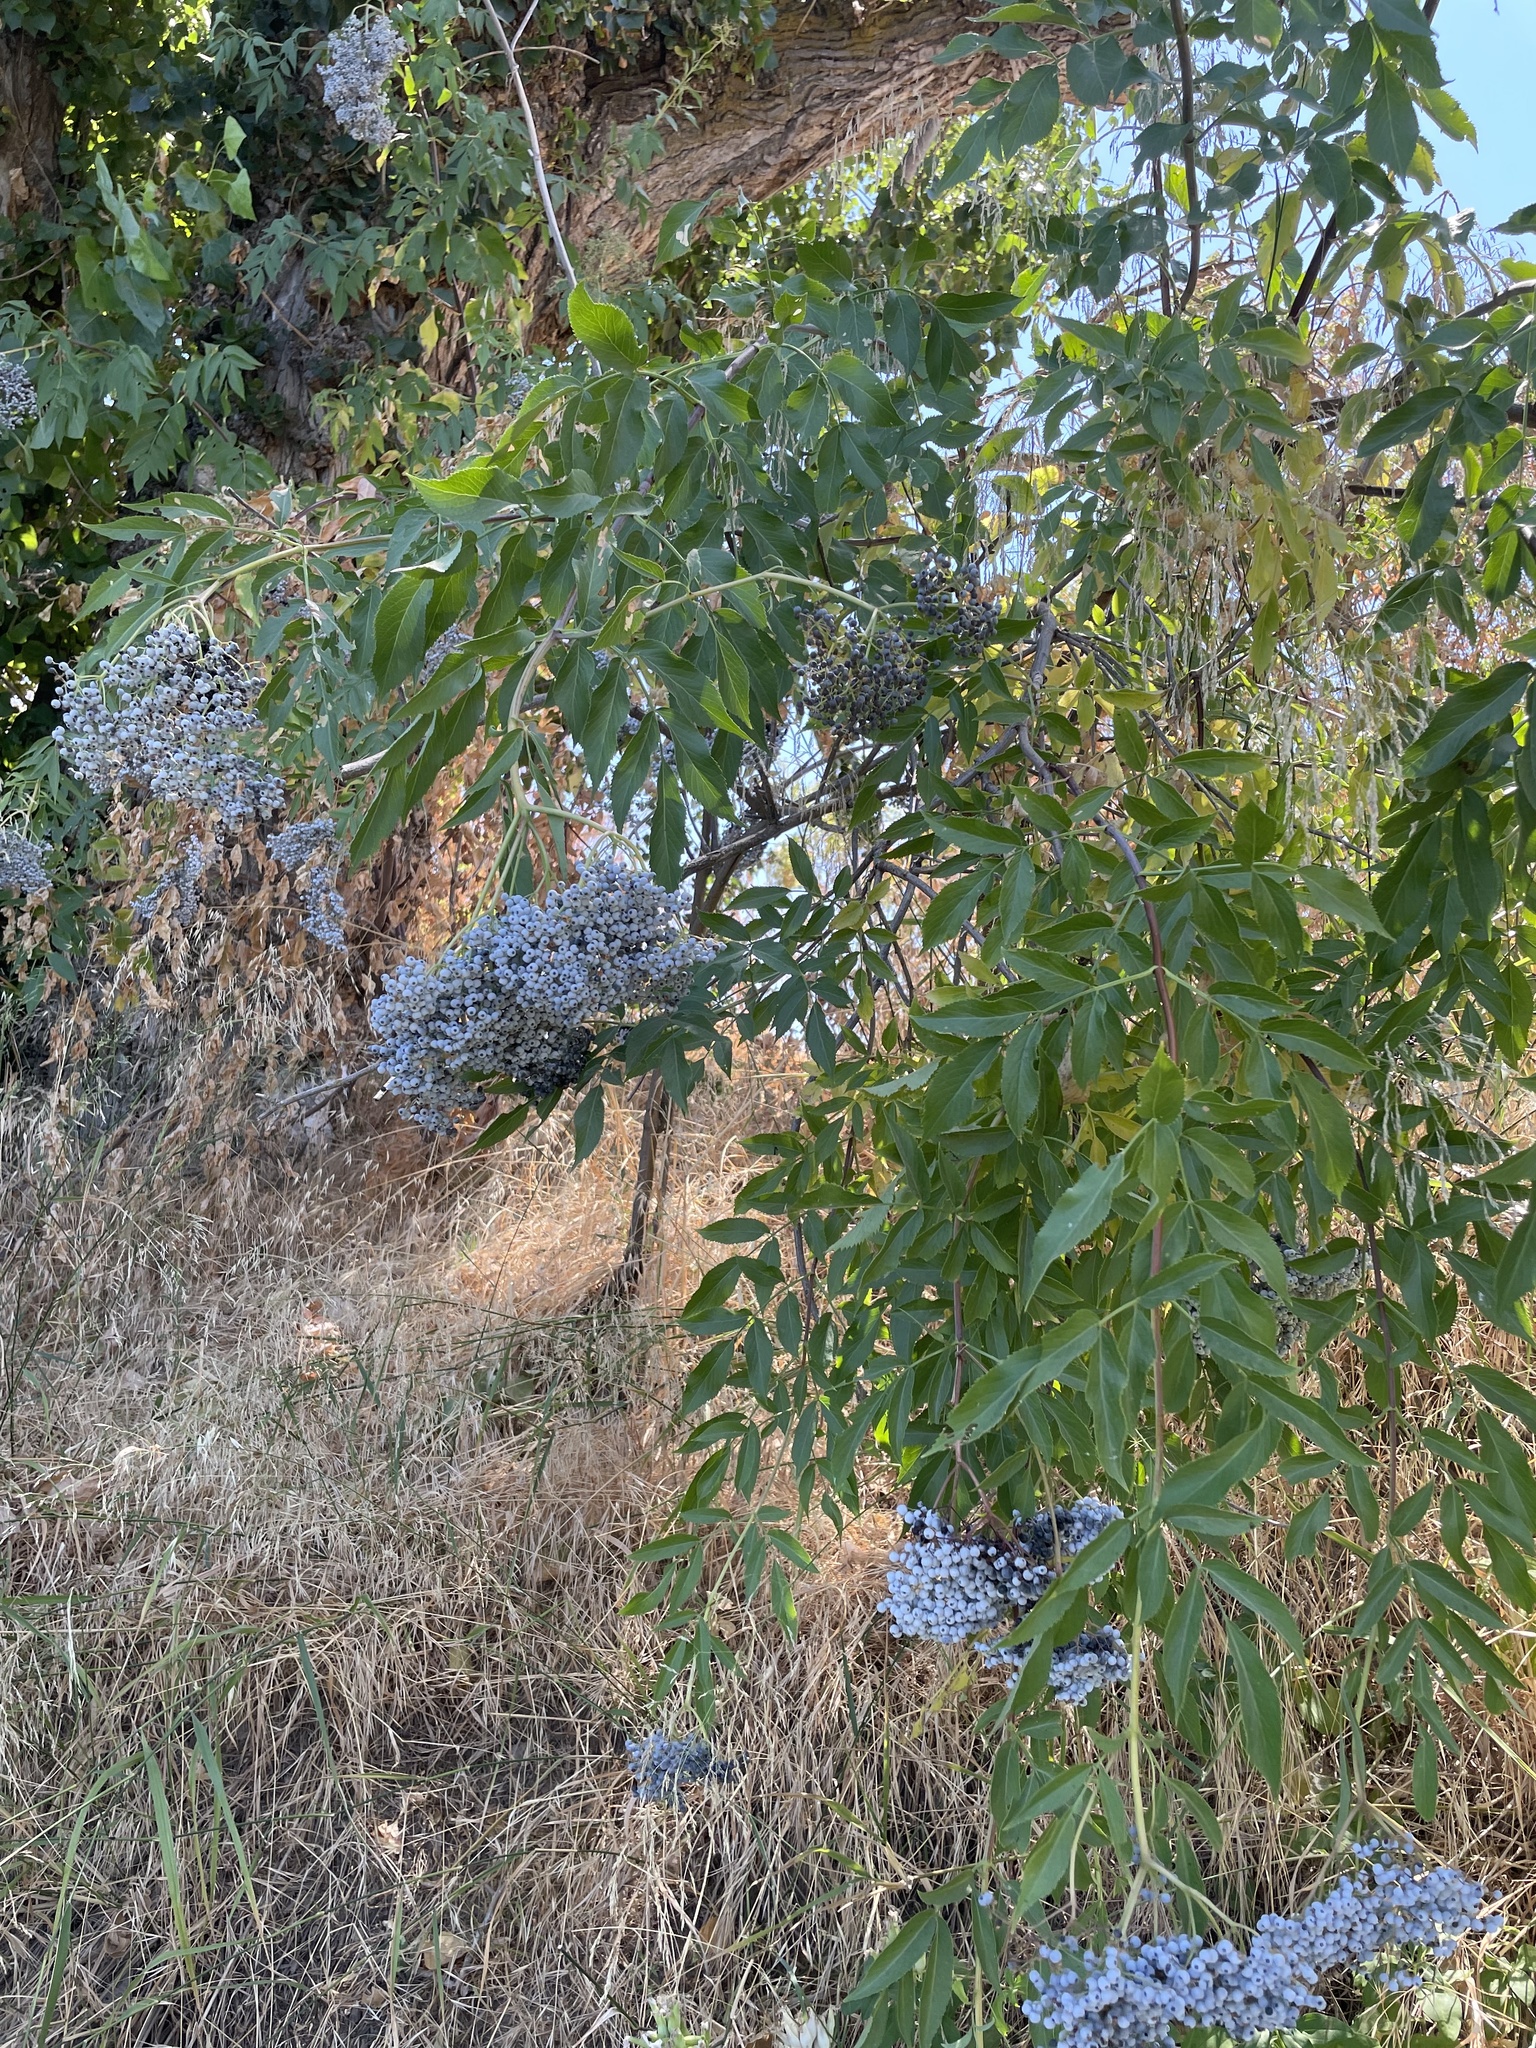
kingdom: Plantae
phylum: Tracheophyta
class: Magnoliopsida
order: Dipsacales
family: Viburnaceae
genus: Sambucus
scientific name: Sambucus cerulea
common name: Blue elder
